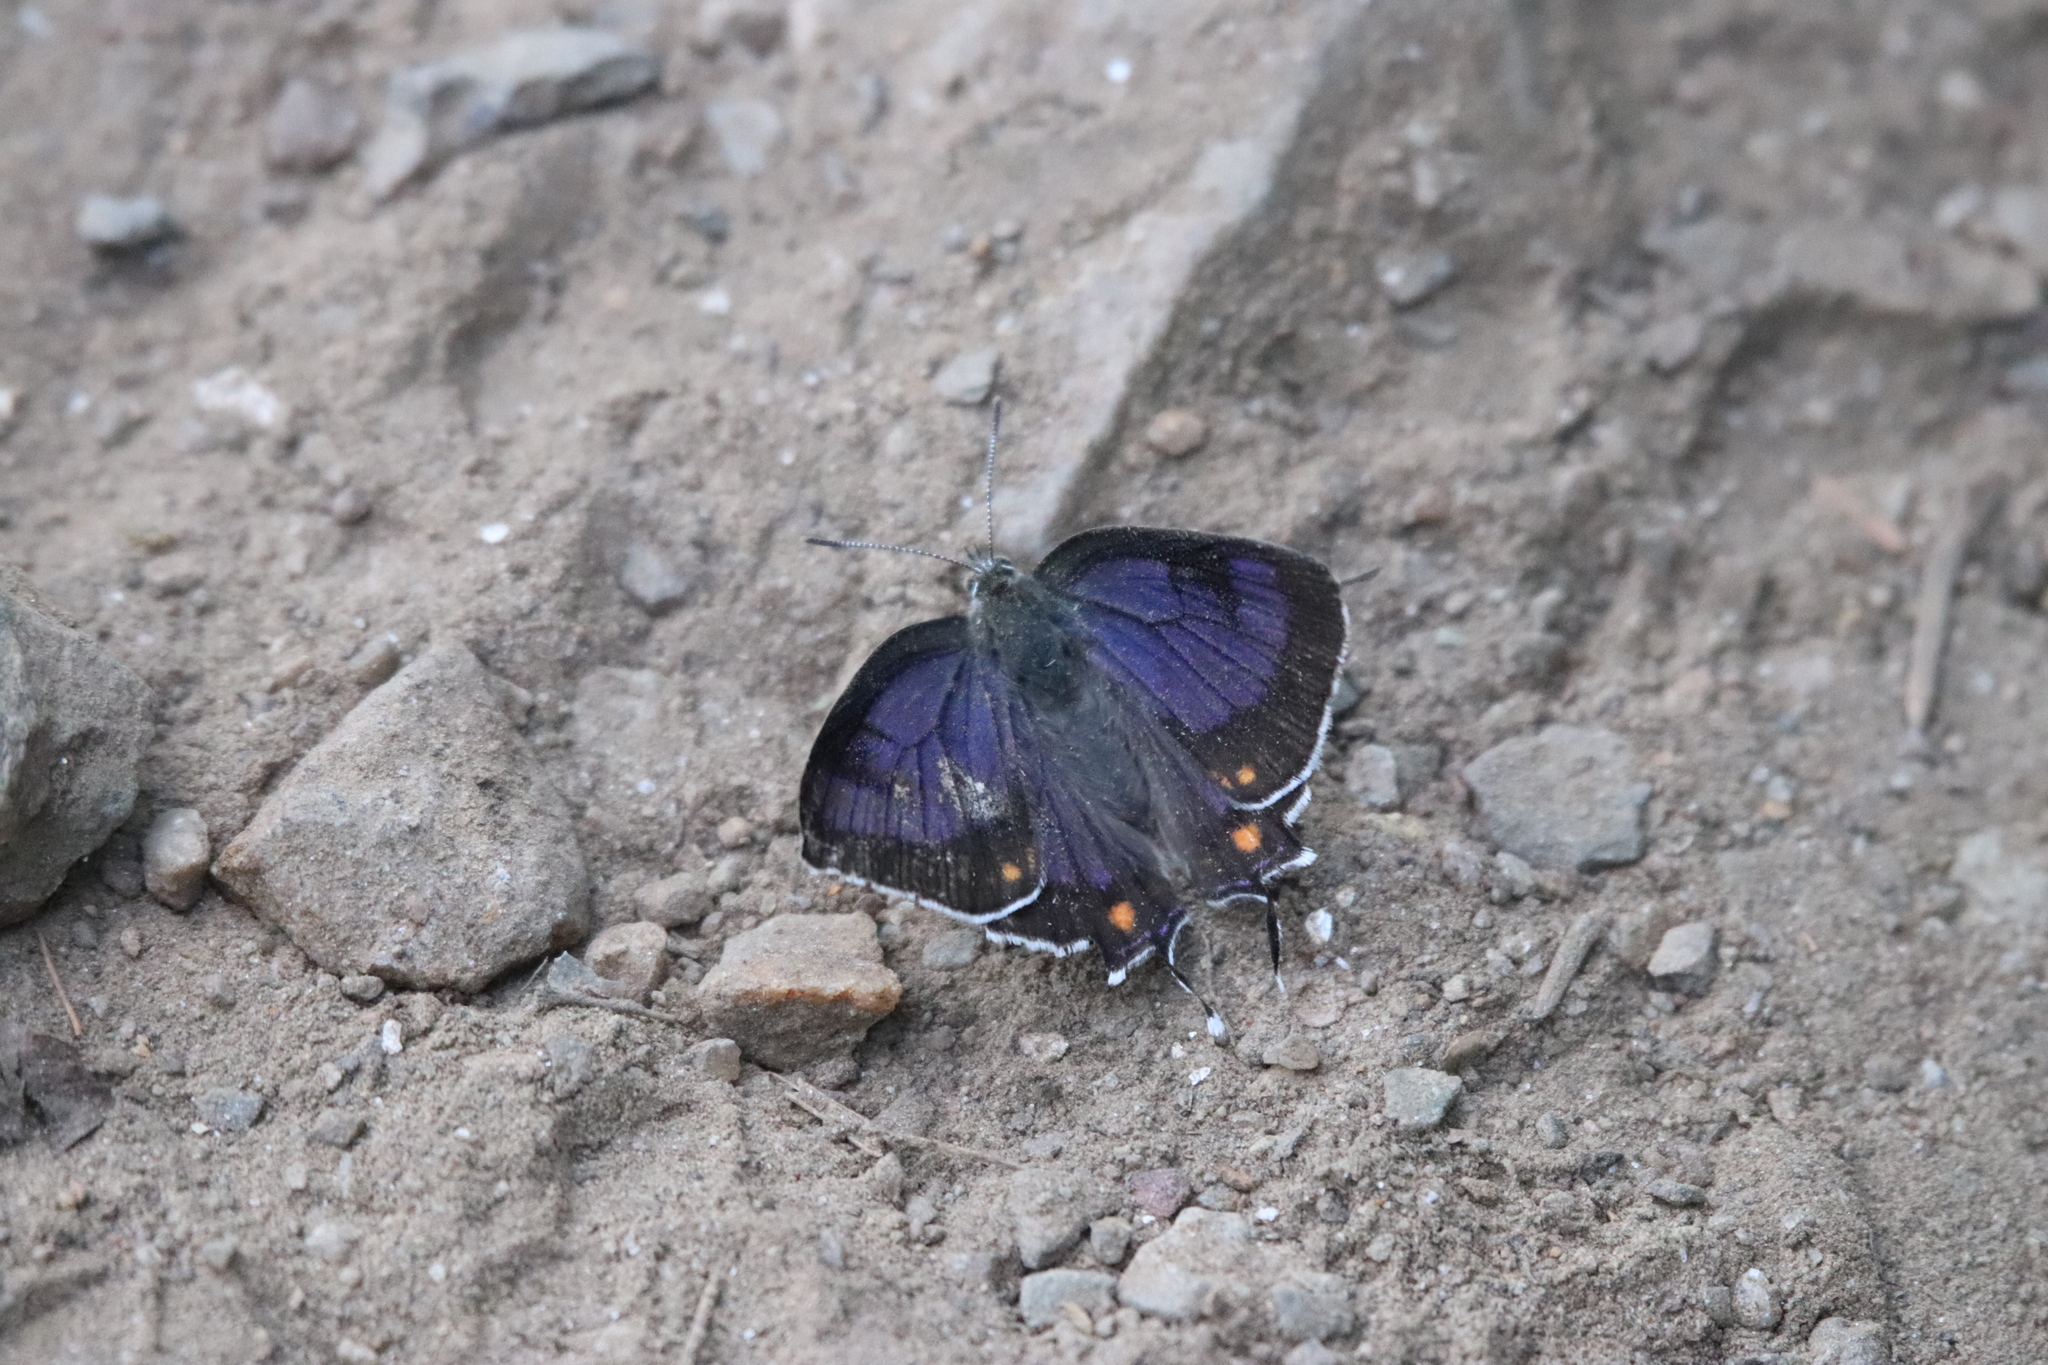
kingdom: Animalia
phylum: Arthropoda
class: Insecta
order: Lepidoptera
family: Lycaenidae
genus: Hypaurotis
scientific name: Hypaurotis crysalus
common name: Colorado hairstreak
